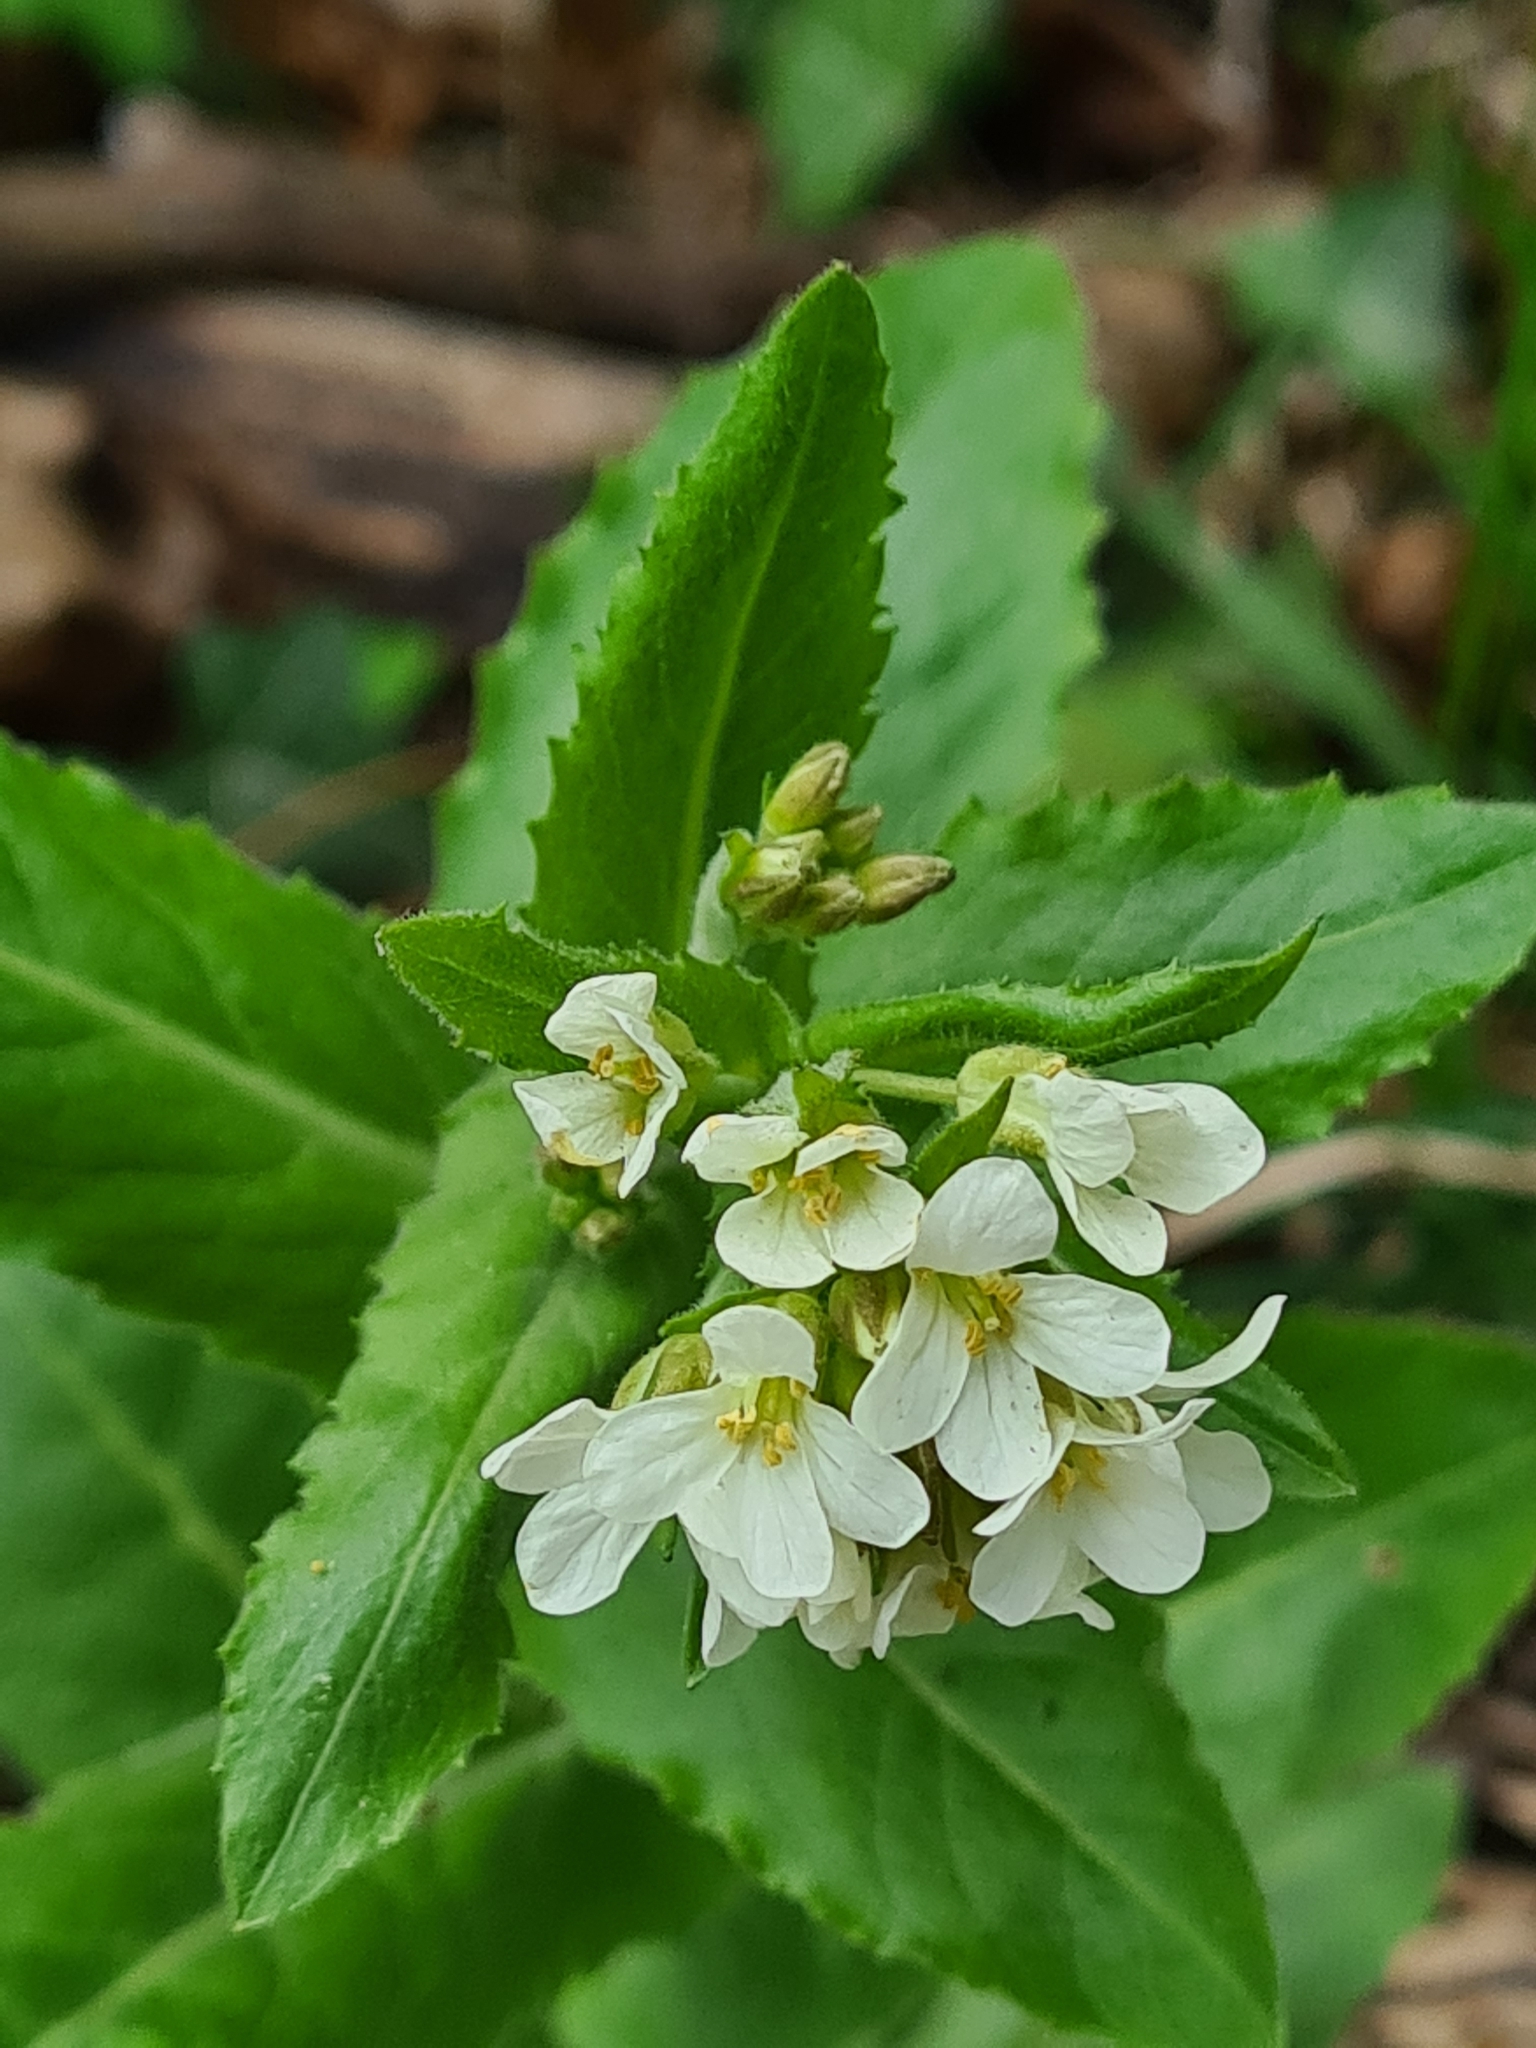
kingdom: Plantae
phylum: Tracheophyta
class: Magnoliopsida
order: Brassicales
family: Brassicaceae
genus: Pseudoturritis
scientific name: Pseudoturritis turrita
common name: Tower cress
